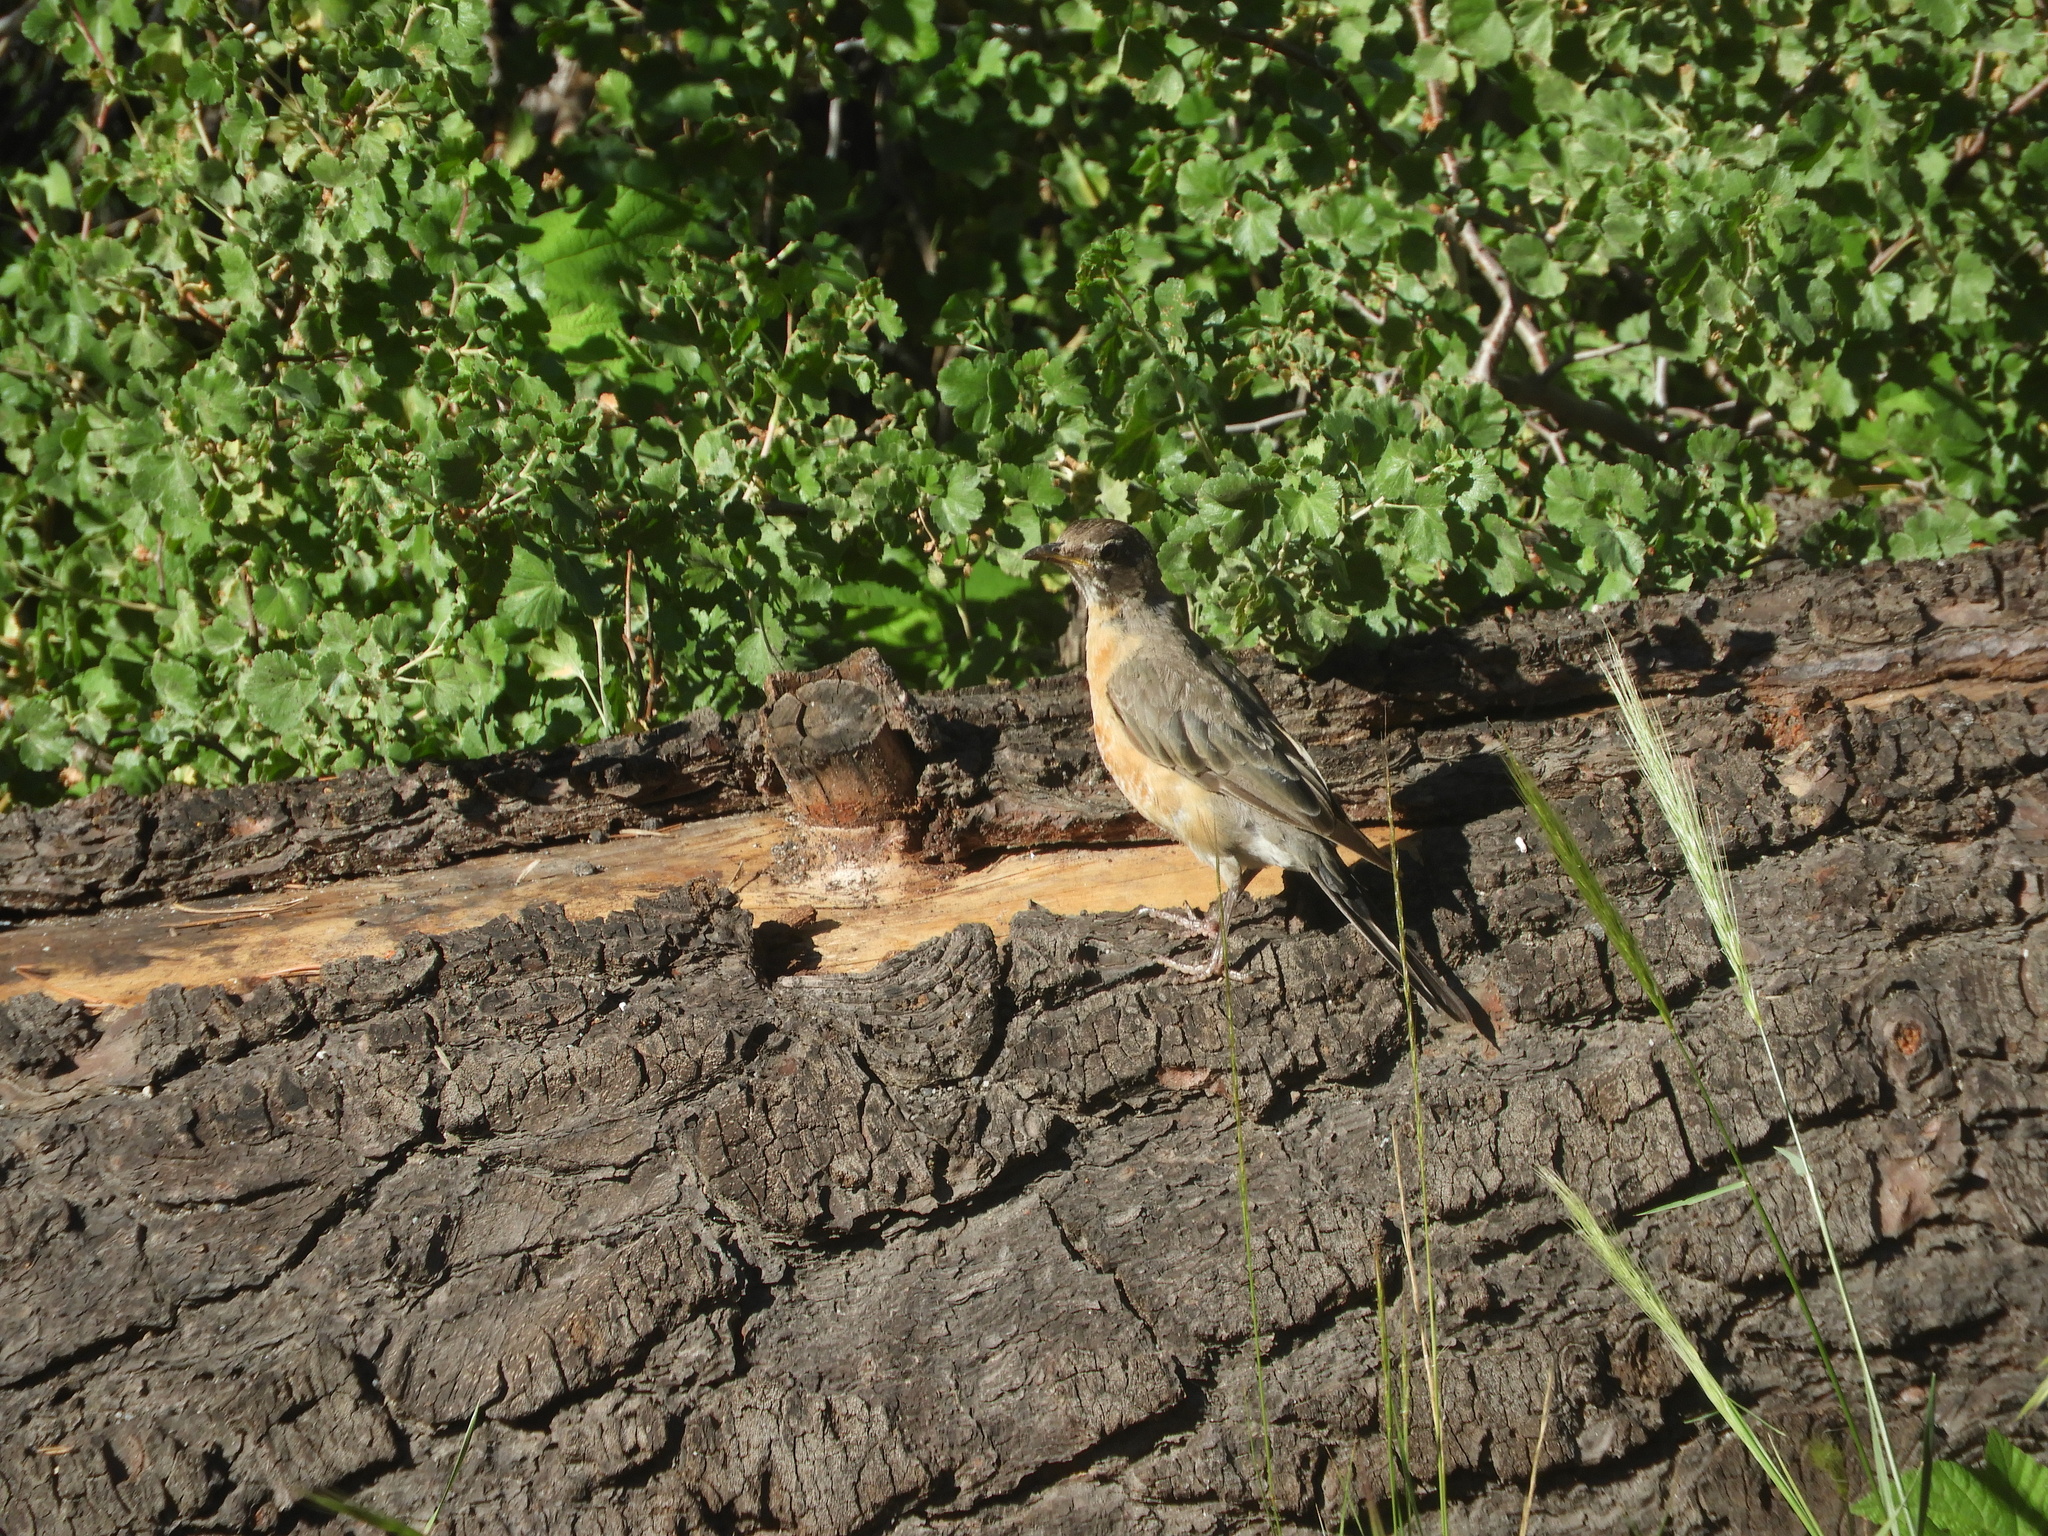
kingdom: Animalia
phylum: Chordata
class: Aves
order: Passeriformes
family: Turdidae
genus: Turdus
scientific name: Turdus migratorius
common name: American robin
